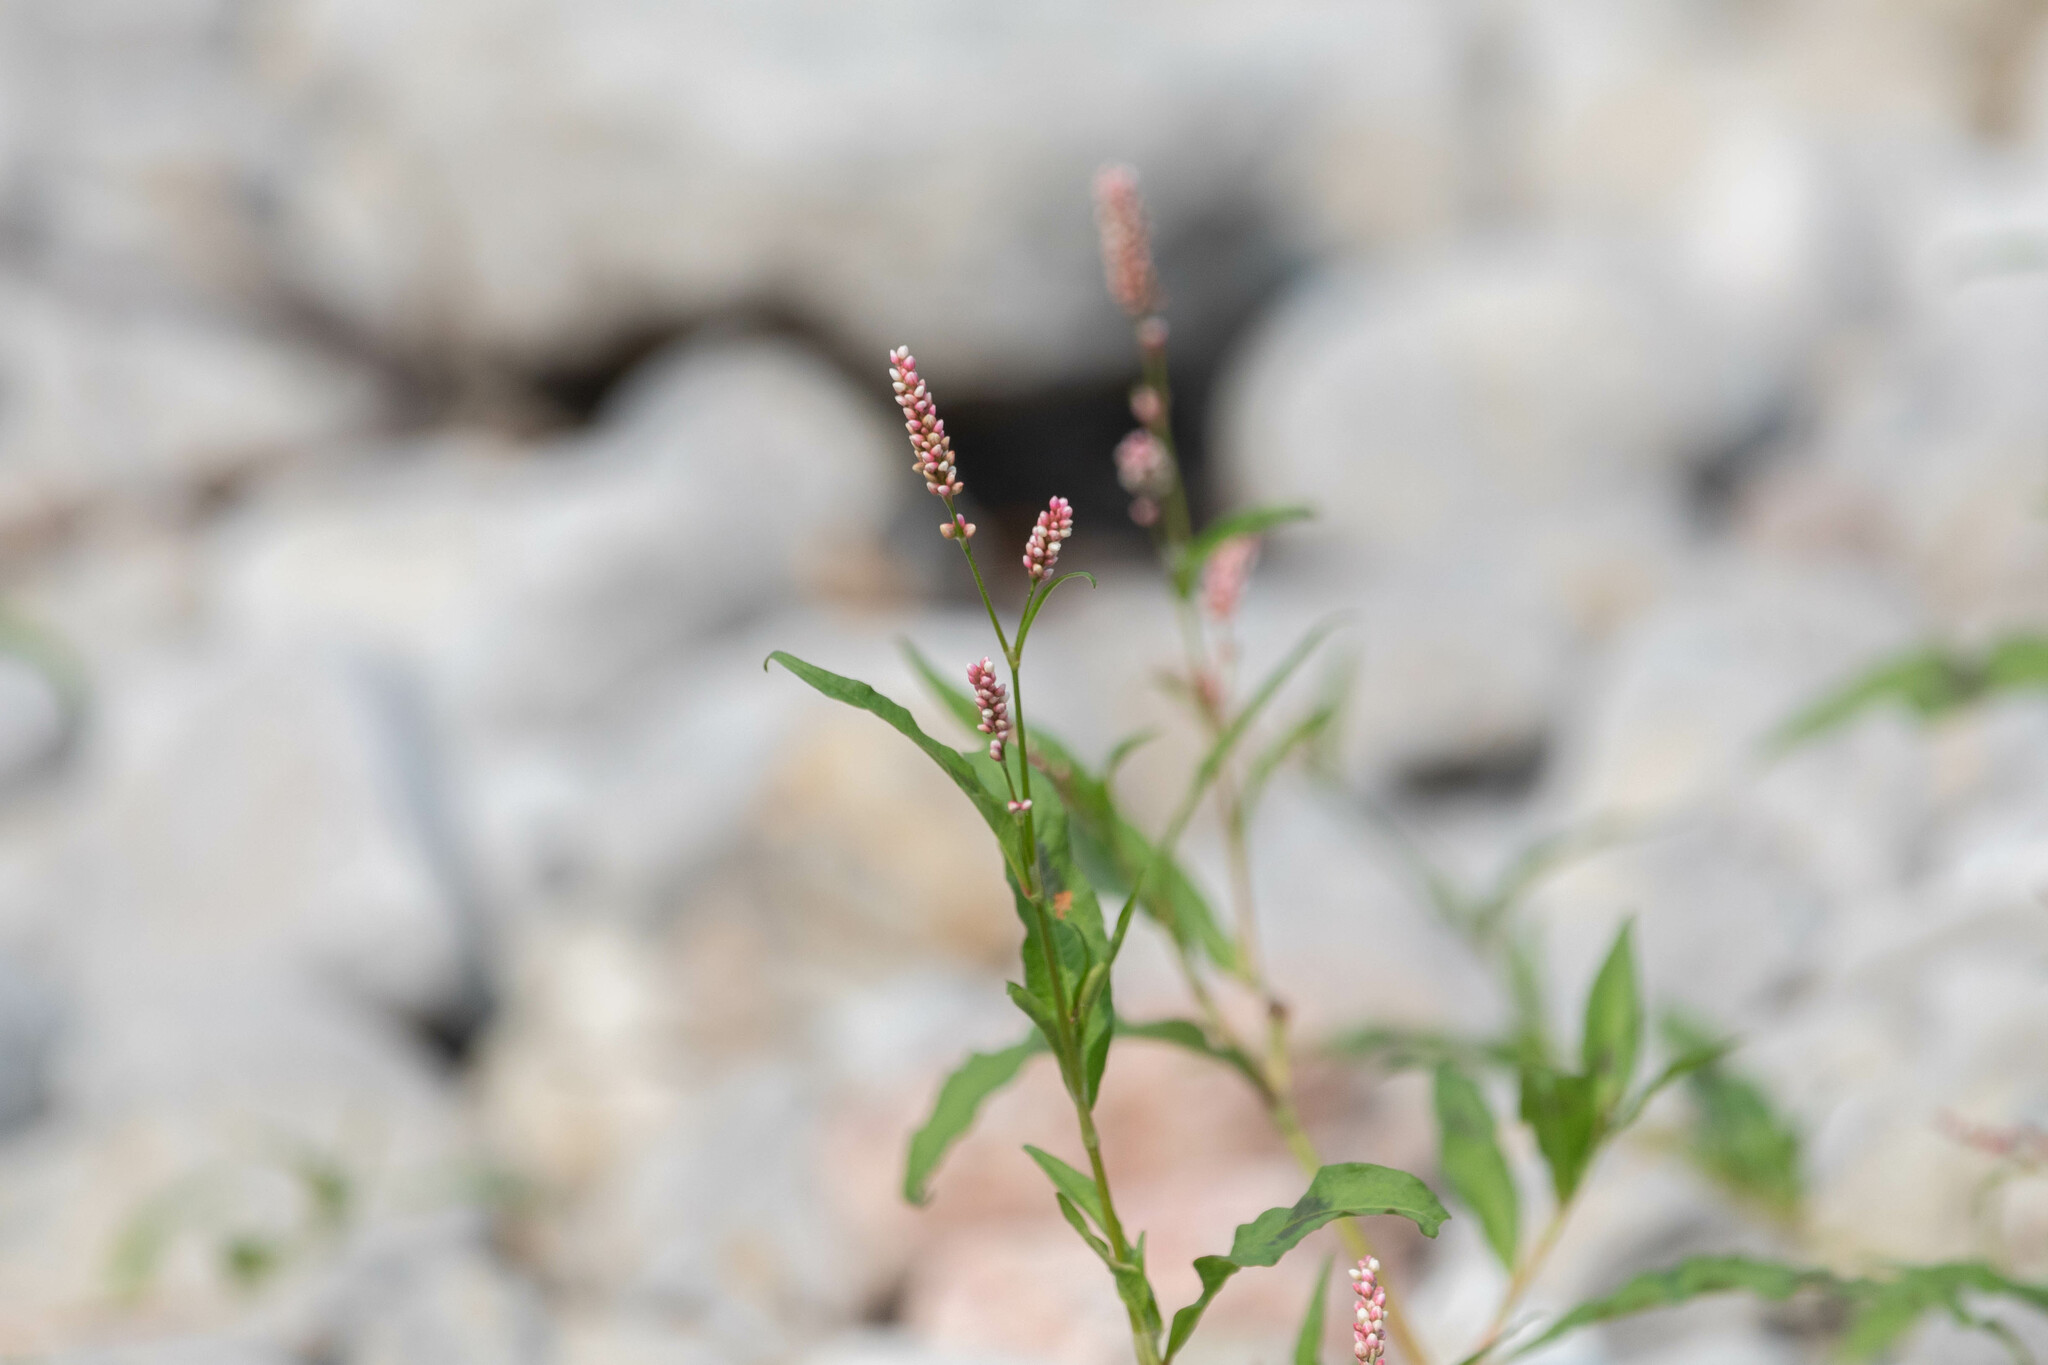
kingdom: Plantae
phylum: Tracheophyta
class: Magnoliopsida
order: Caryophyllales
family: Polygonaceae
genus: Persicaria
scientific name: Persicaria maculosa
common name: Redshank
